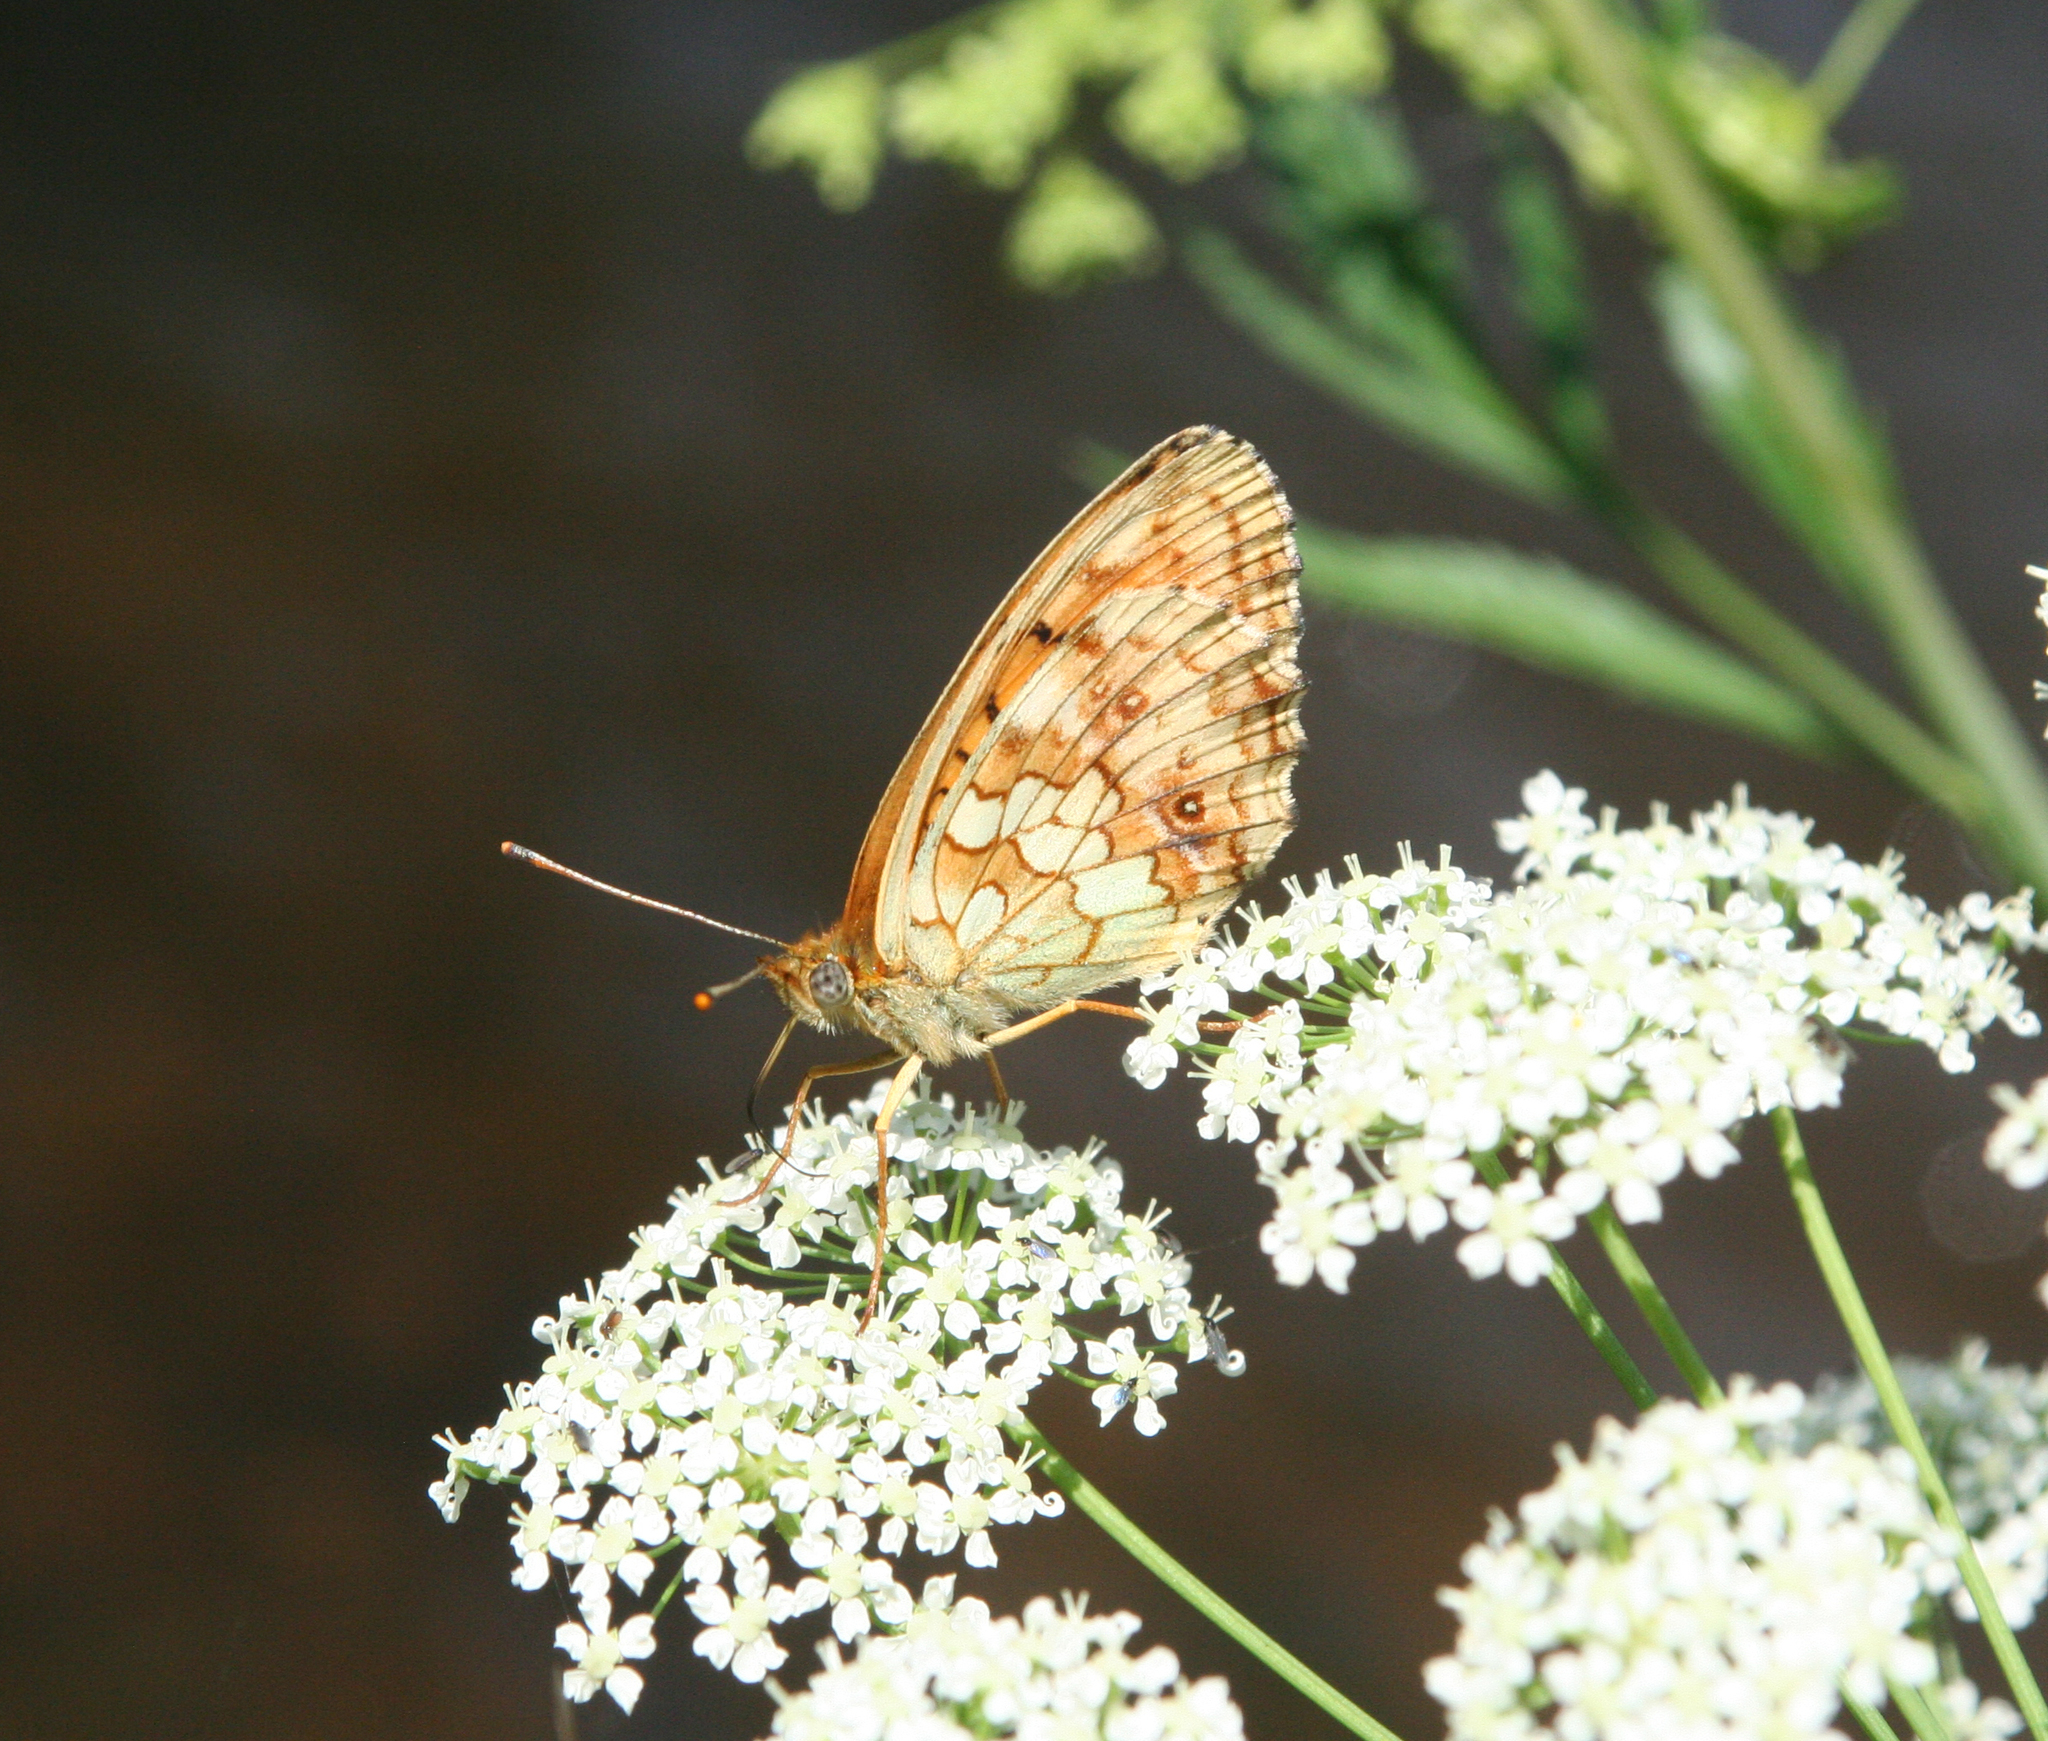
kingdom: Animalia
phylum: Arthropoda
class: Insecta
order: Lepidoptera
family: Nymphalidae
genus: Brenthis
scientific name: Brenthis ino
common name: Lesser marbled fritillary
